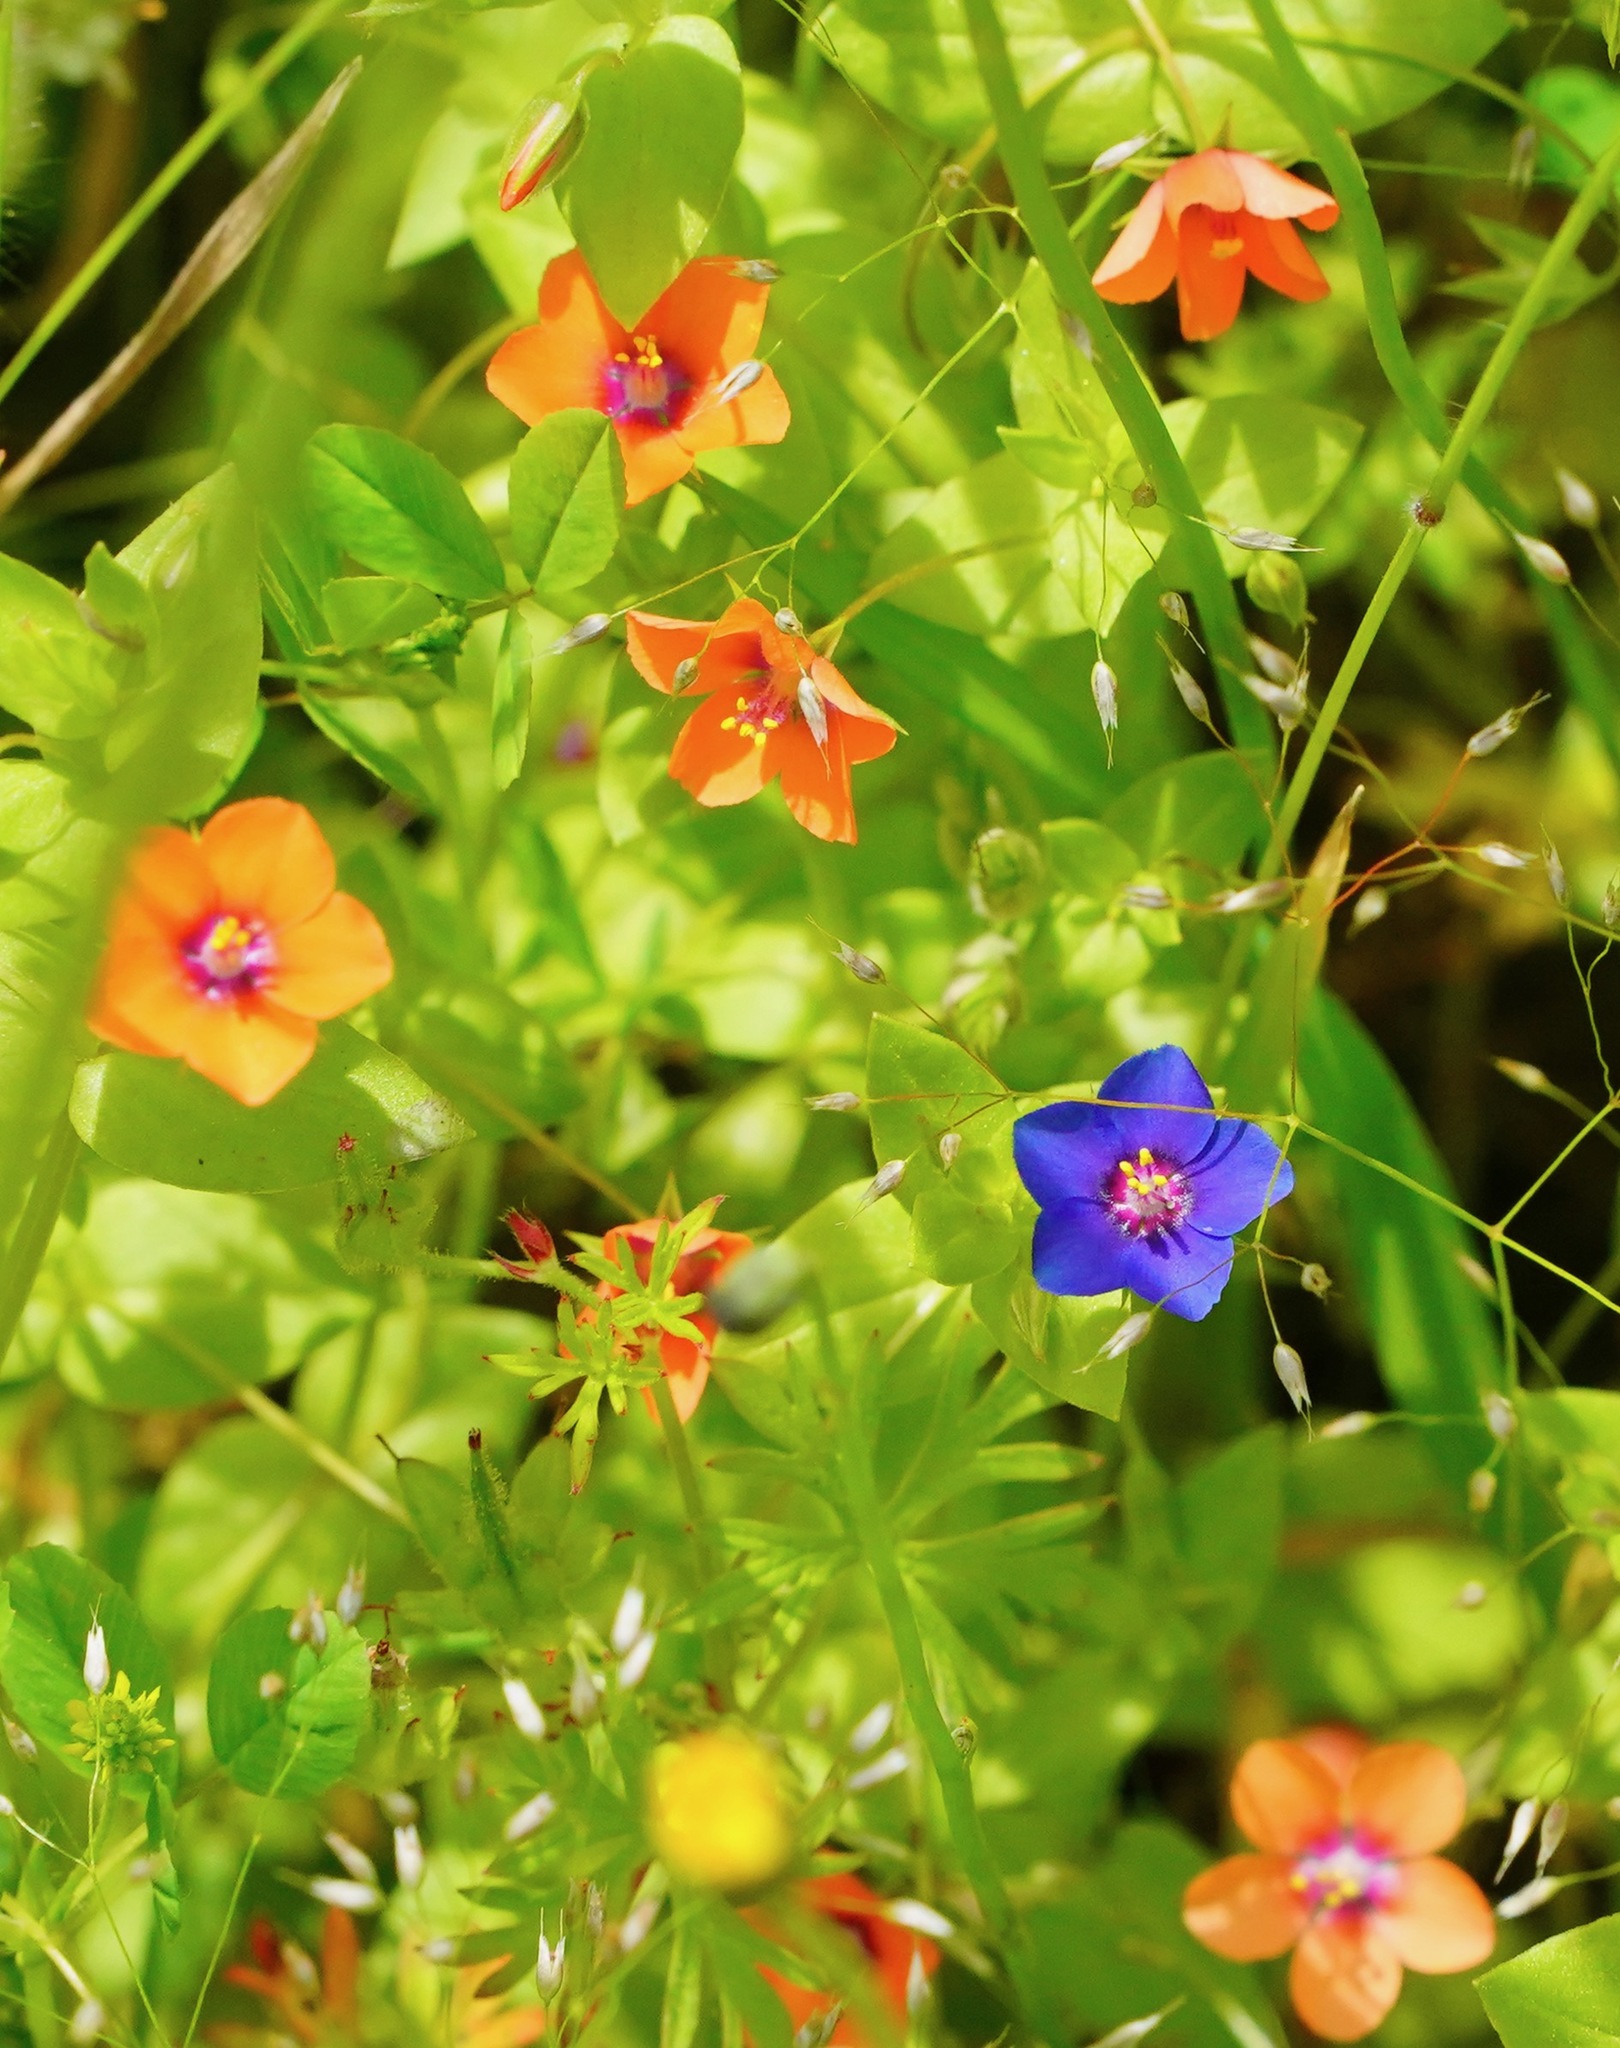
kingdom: Plantae
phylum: Tracheophyta
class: Magnoliopsida
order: Ericales
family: Primulaceae
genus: Lysimachia
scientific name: Lysimachia arvensis
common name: Scarlet pimpernel
